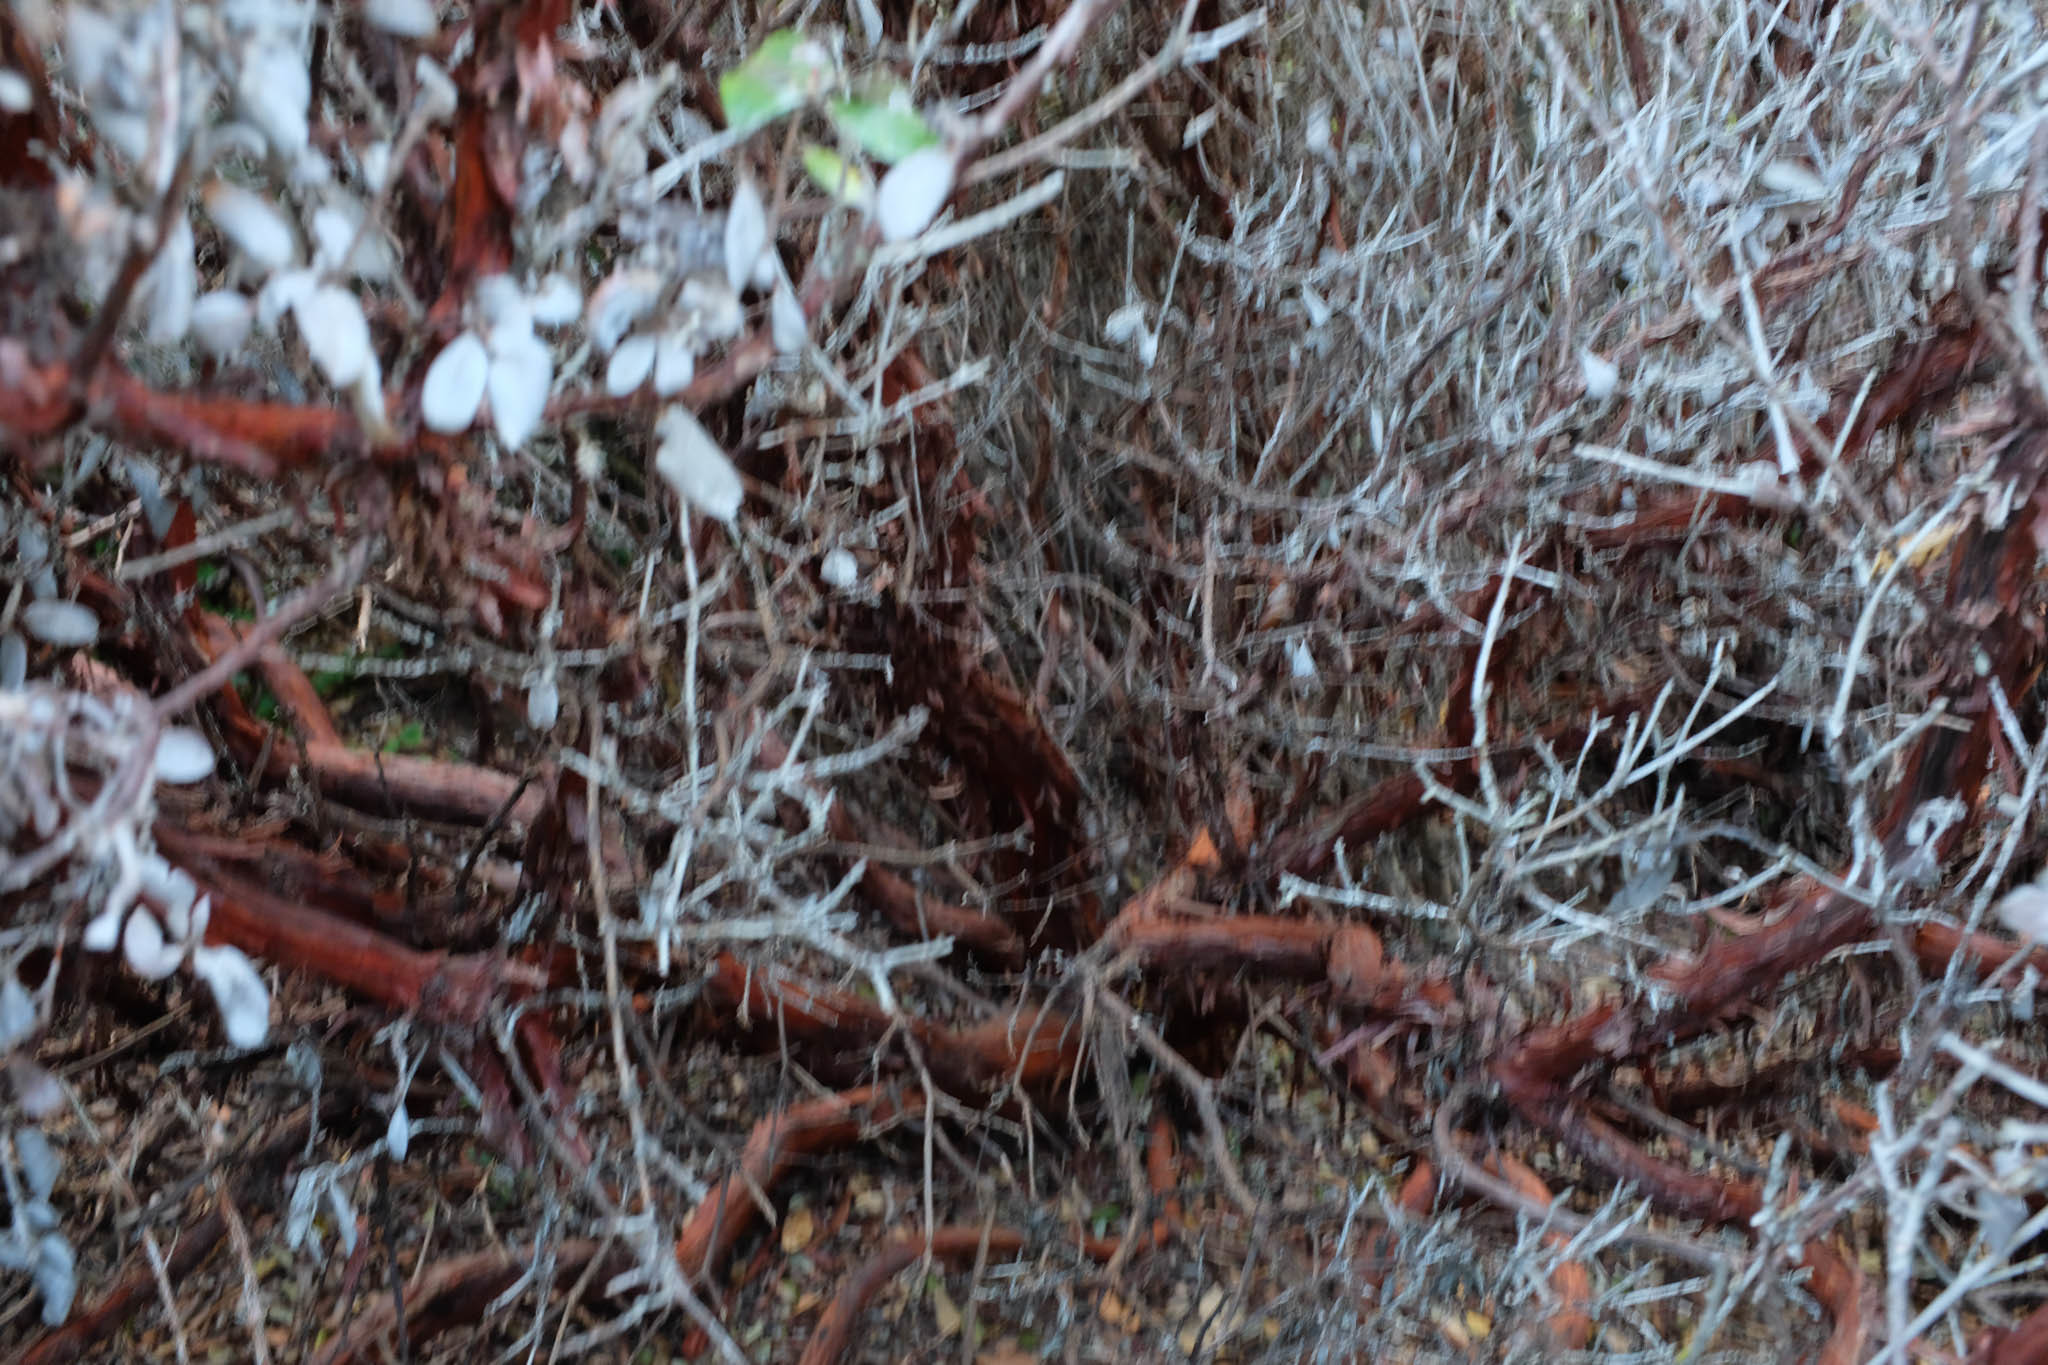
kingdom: Plantae
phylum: Tracheophyta
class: Magnoliopsida
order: Ericales
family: Ericaceae
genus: Arctostaphylos
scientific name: Arctostaphylos tomentosa
